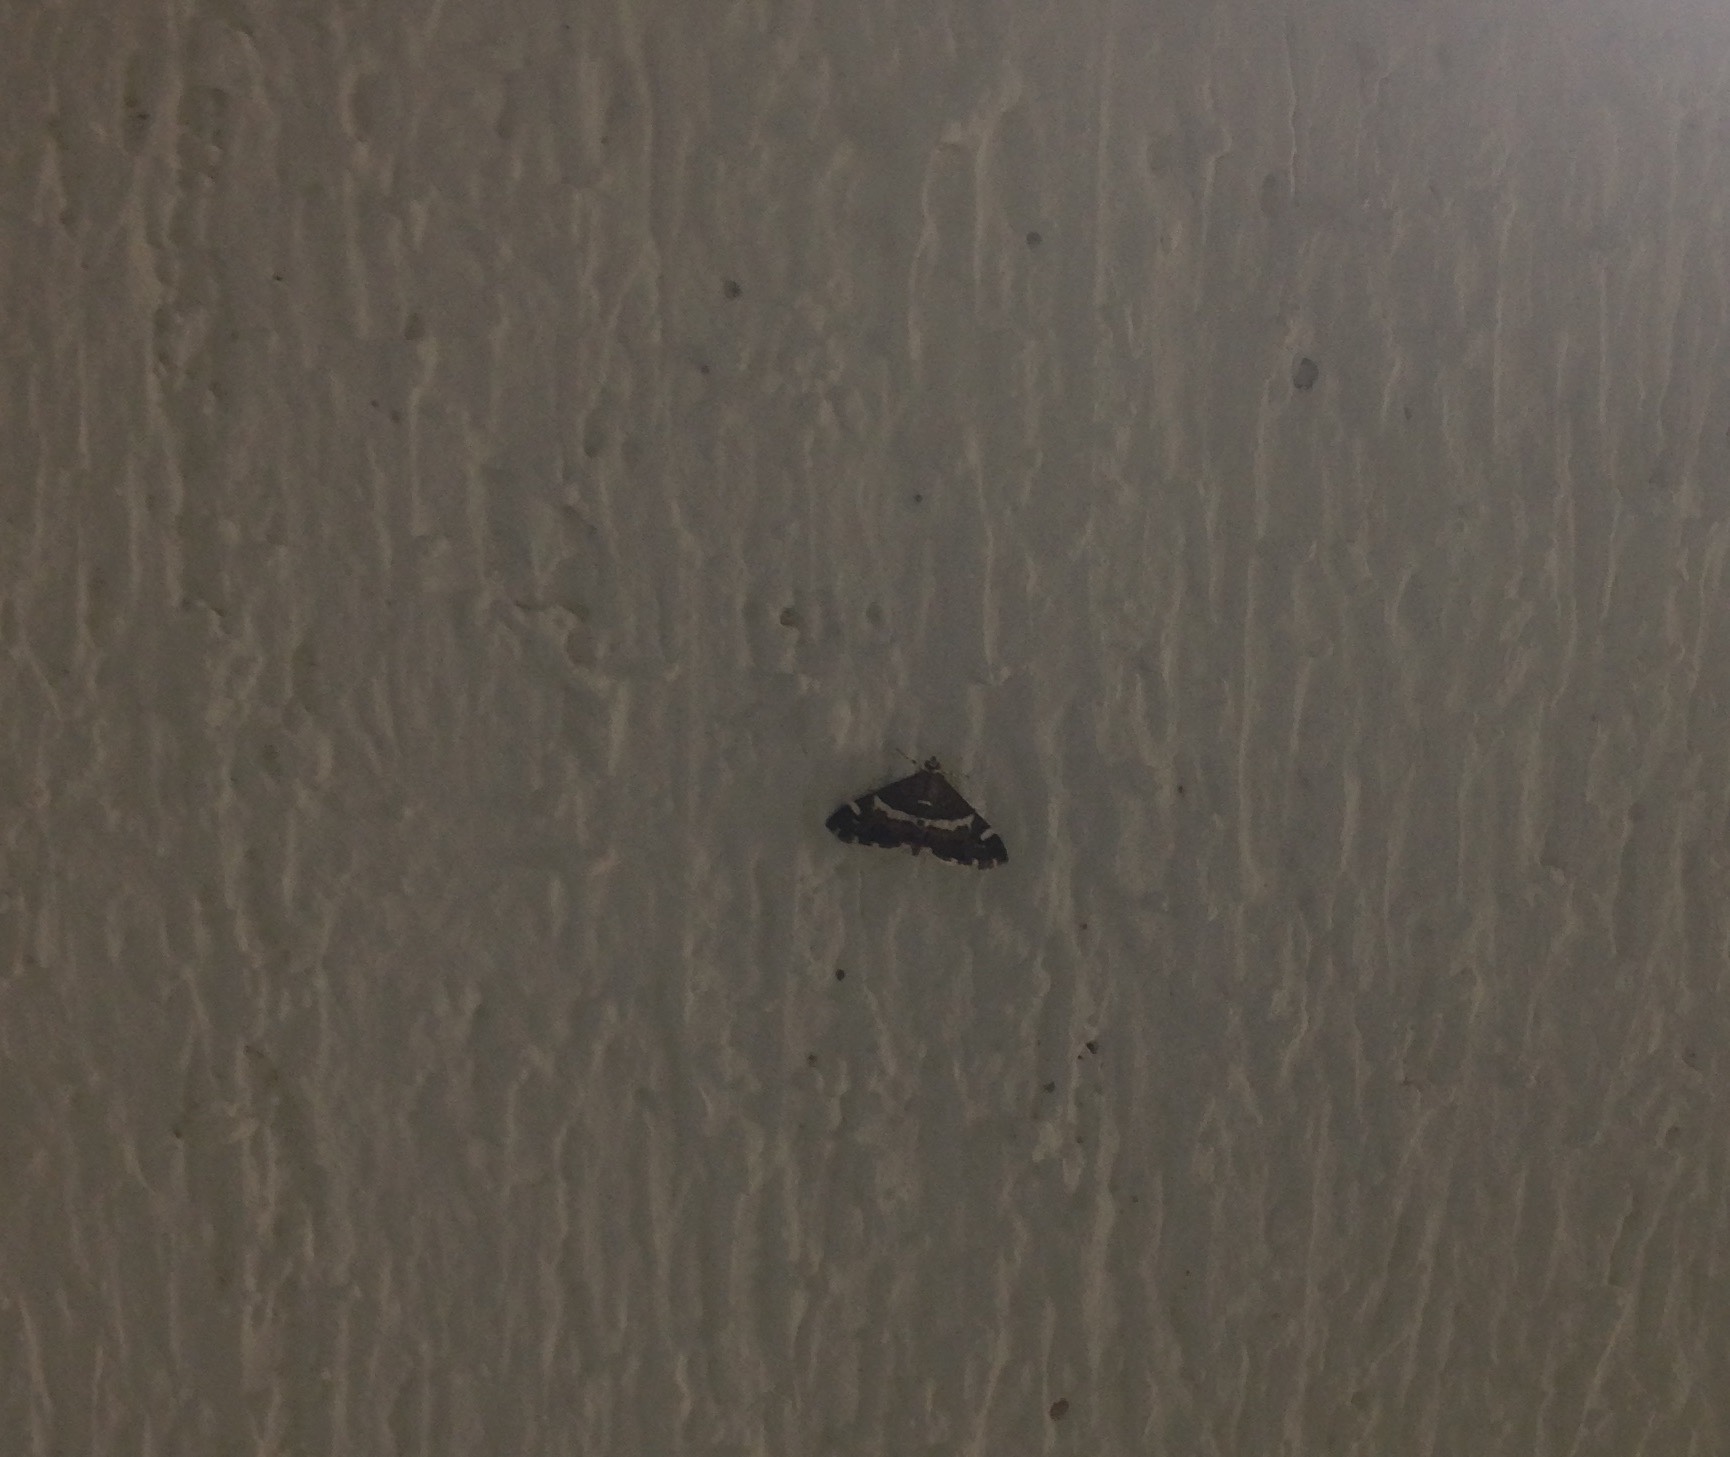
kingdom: Animalia
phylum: Arthropoda
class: Insecta
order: Lepidoptera
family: Crambidae
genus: Spoladea
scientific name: Spoladea recurvalis
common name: Beet webworm moth
